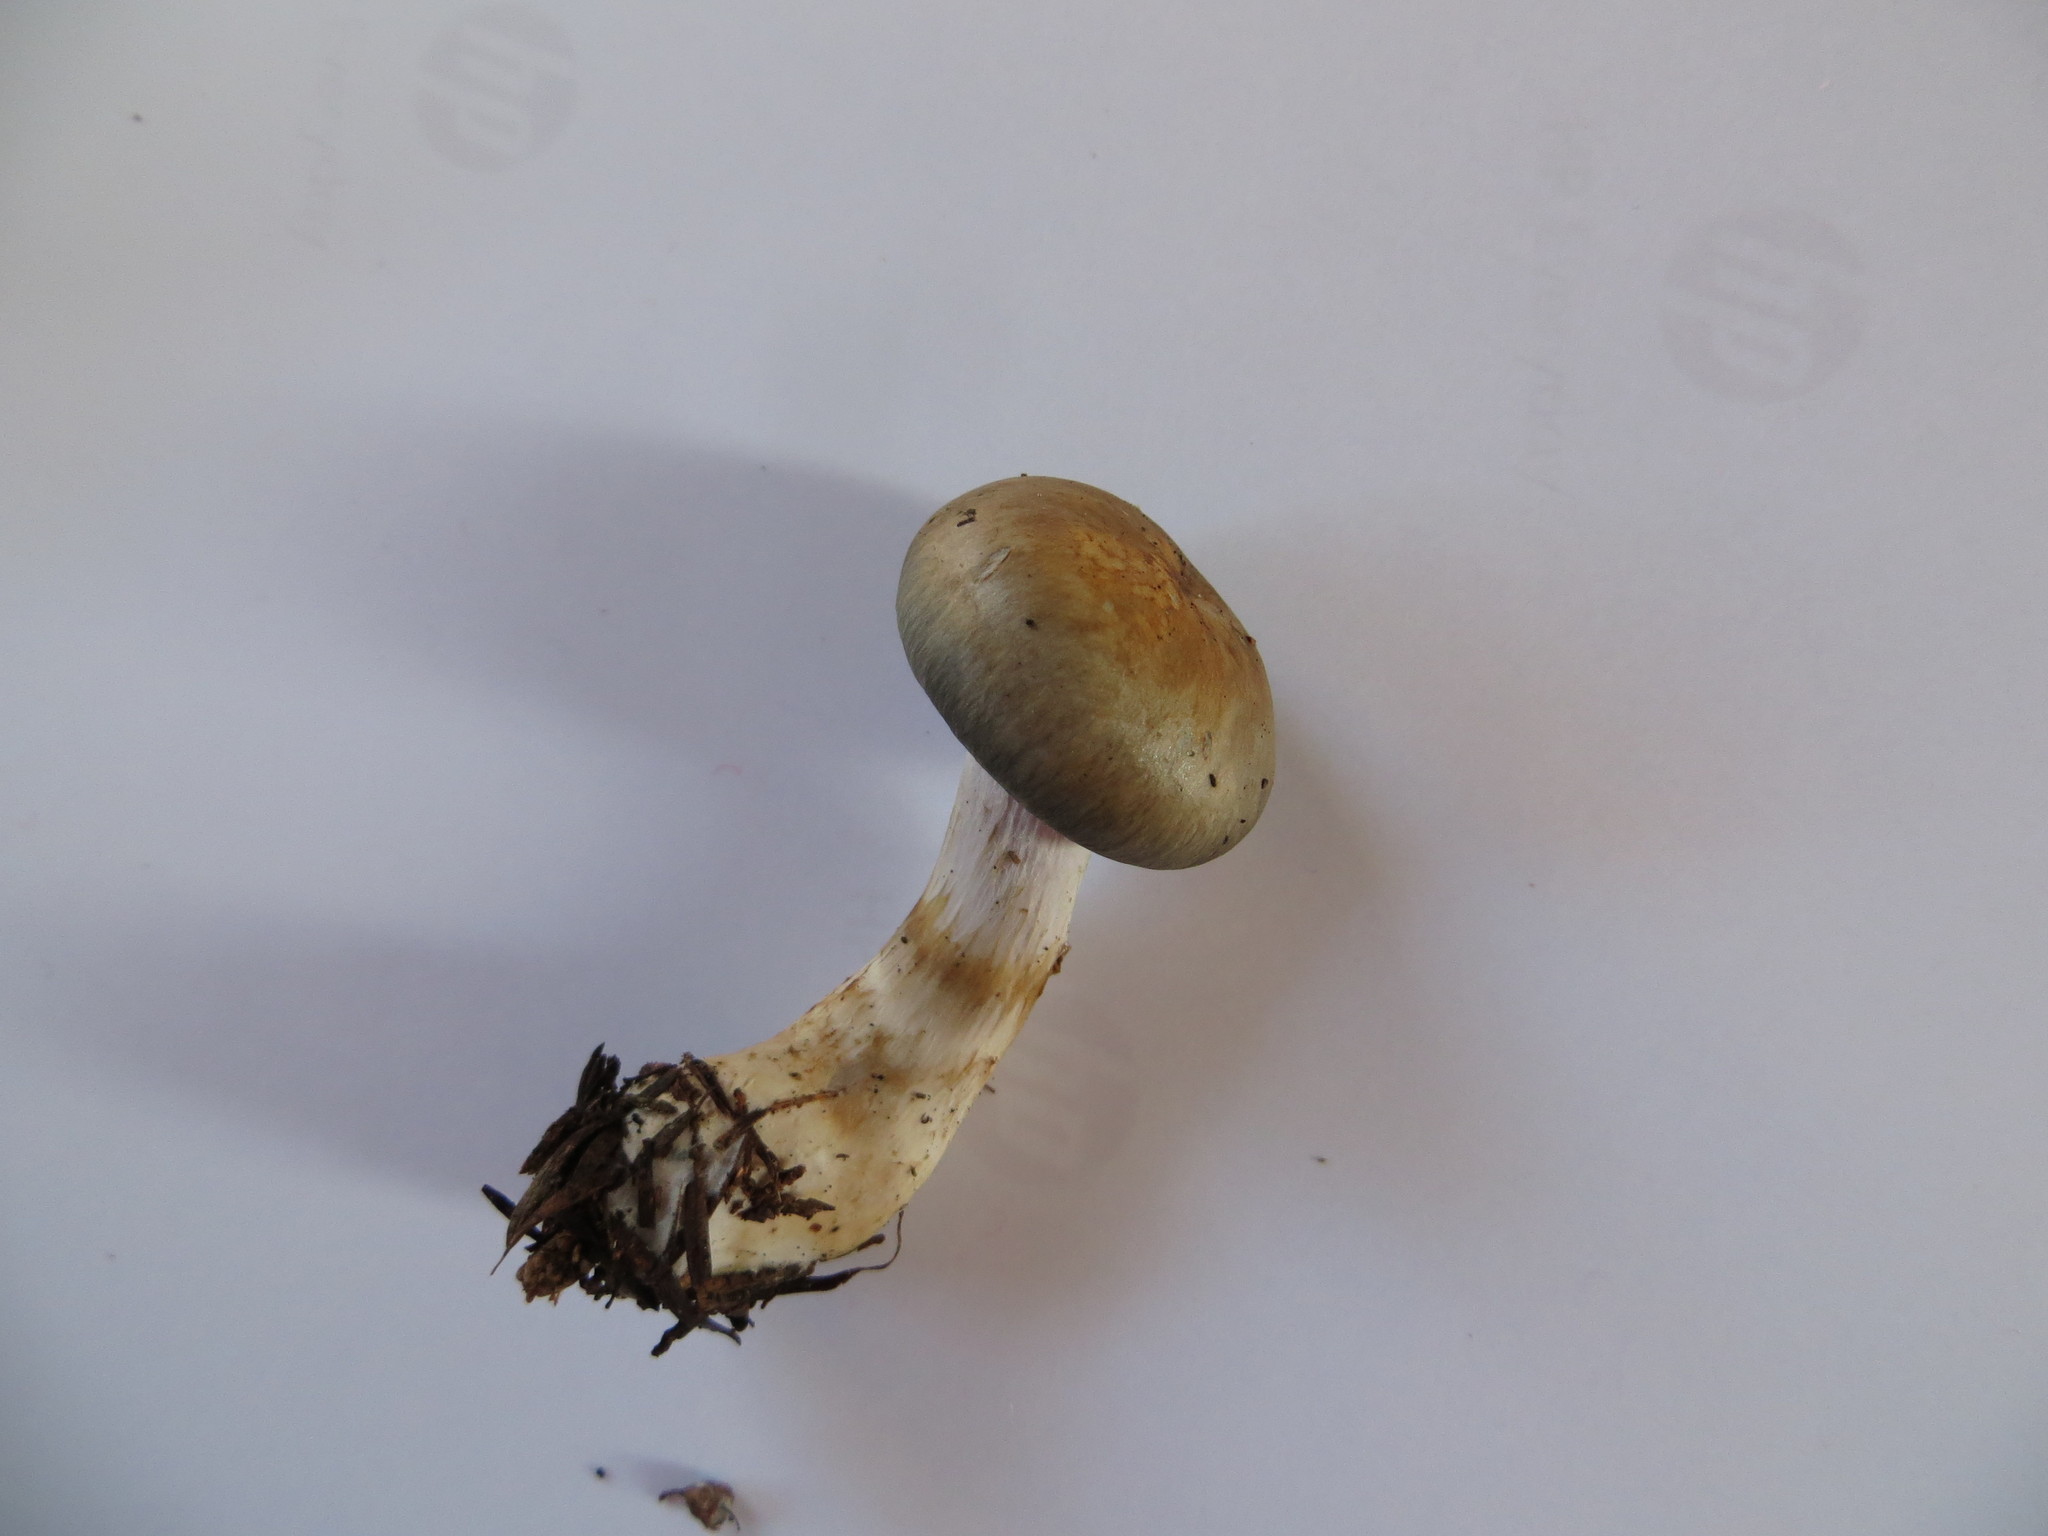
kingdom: Fungi
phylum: Basidiomycota
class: Agaricomycetes
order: Agaricales
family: Cortinariaceae
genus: Cortinarius
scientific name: Cortinarius rotundisporus
